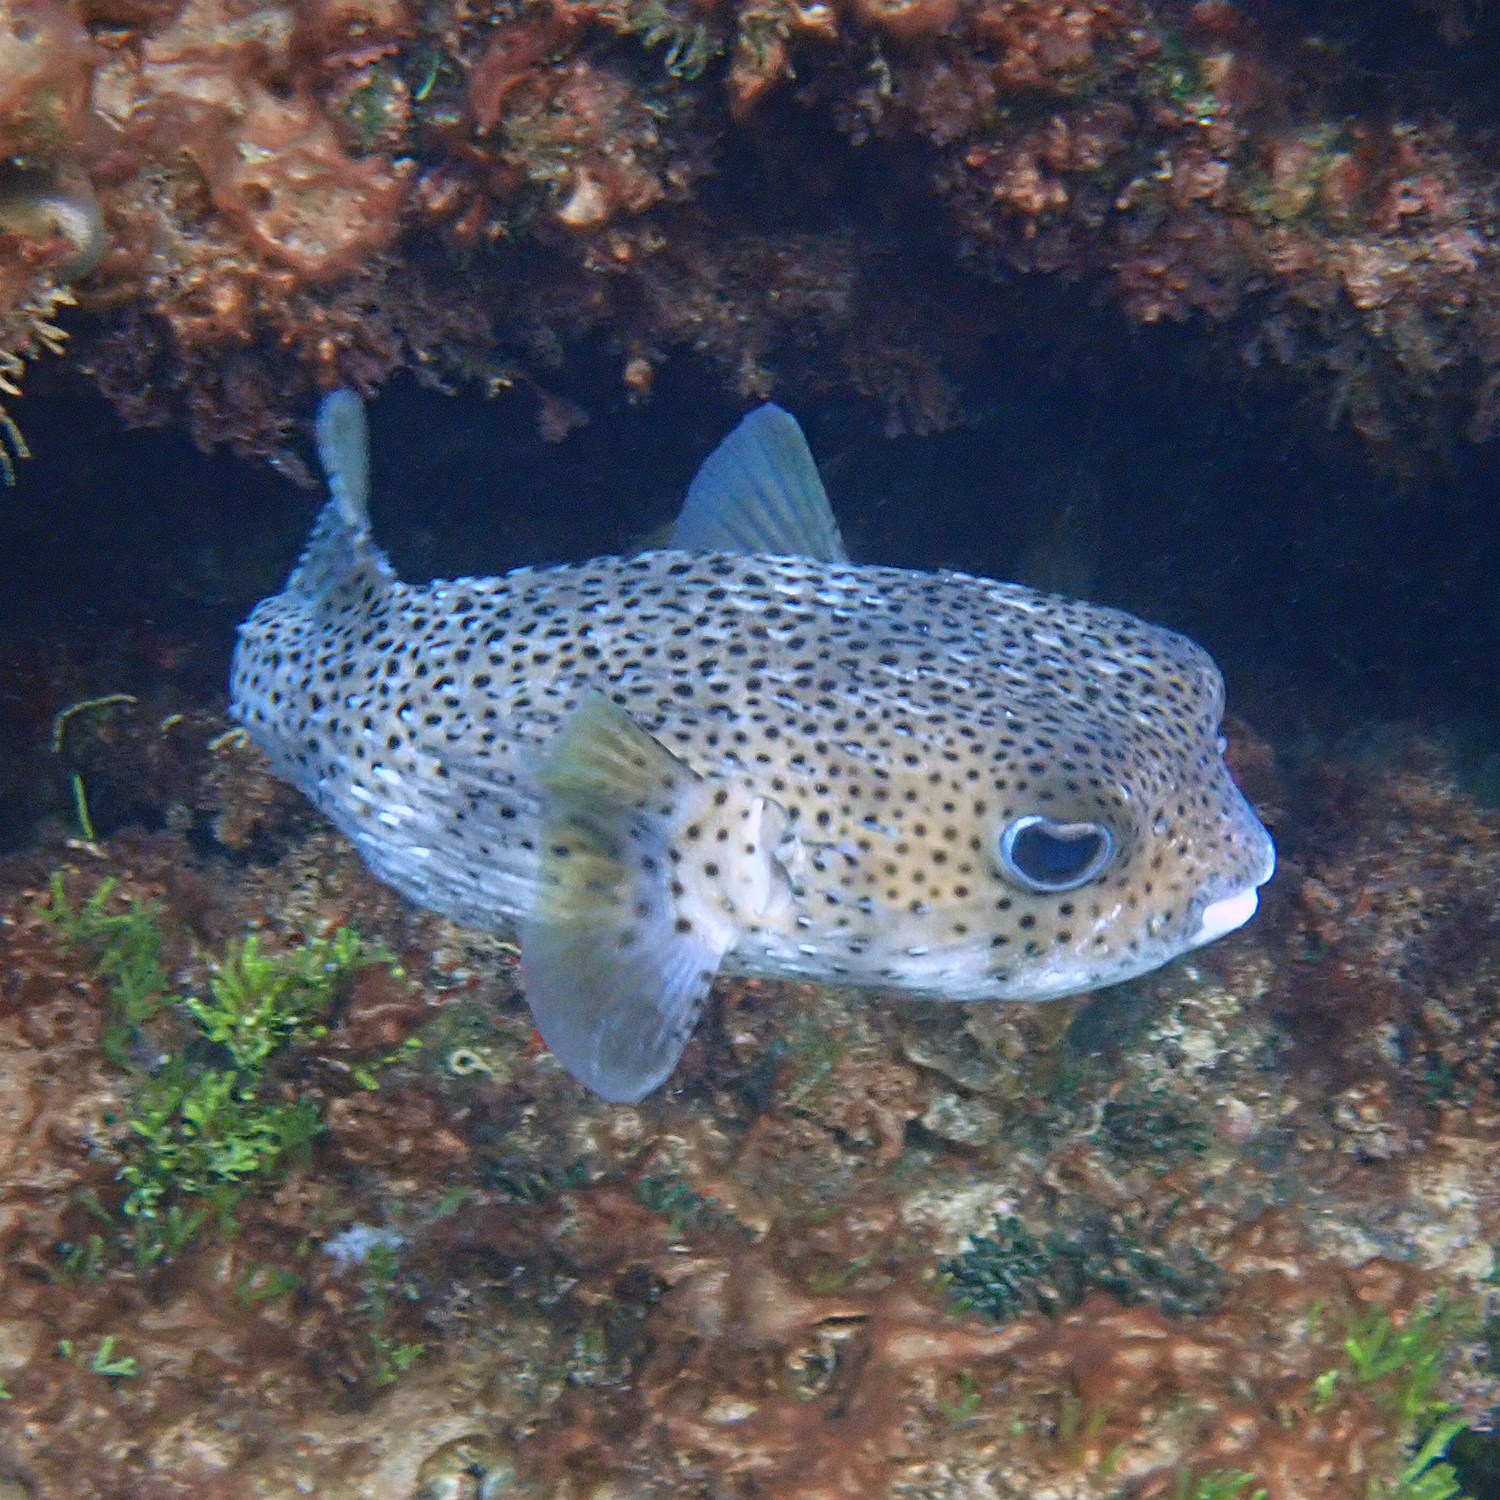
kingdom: Animalia
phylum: Chordata
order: Tetraodontiformes
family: Diodontidae
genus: Diodon
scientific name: Diodon hystrix
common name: Giant porcupinefish
